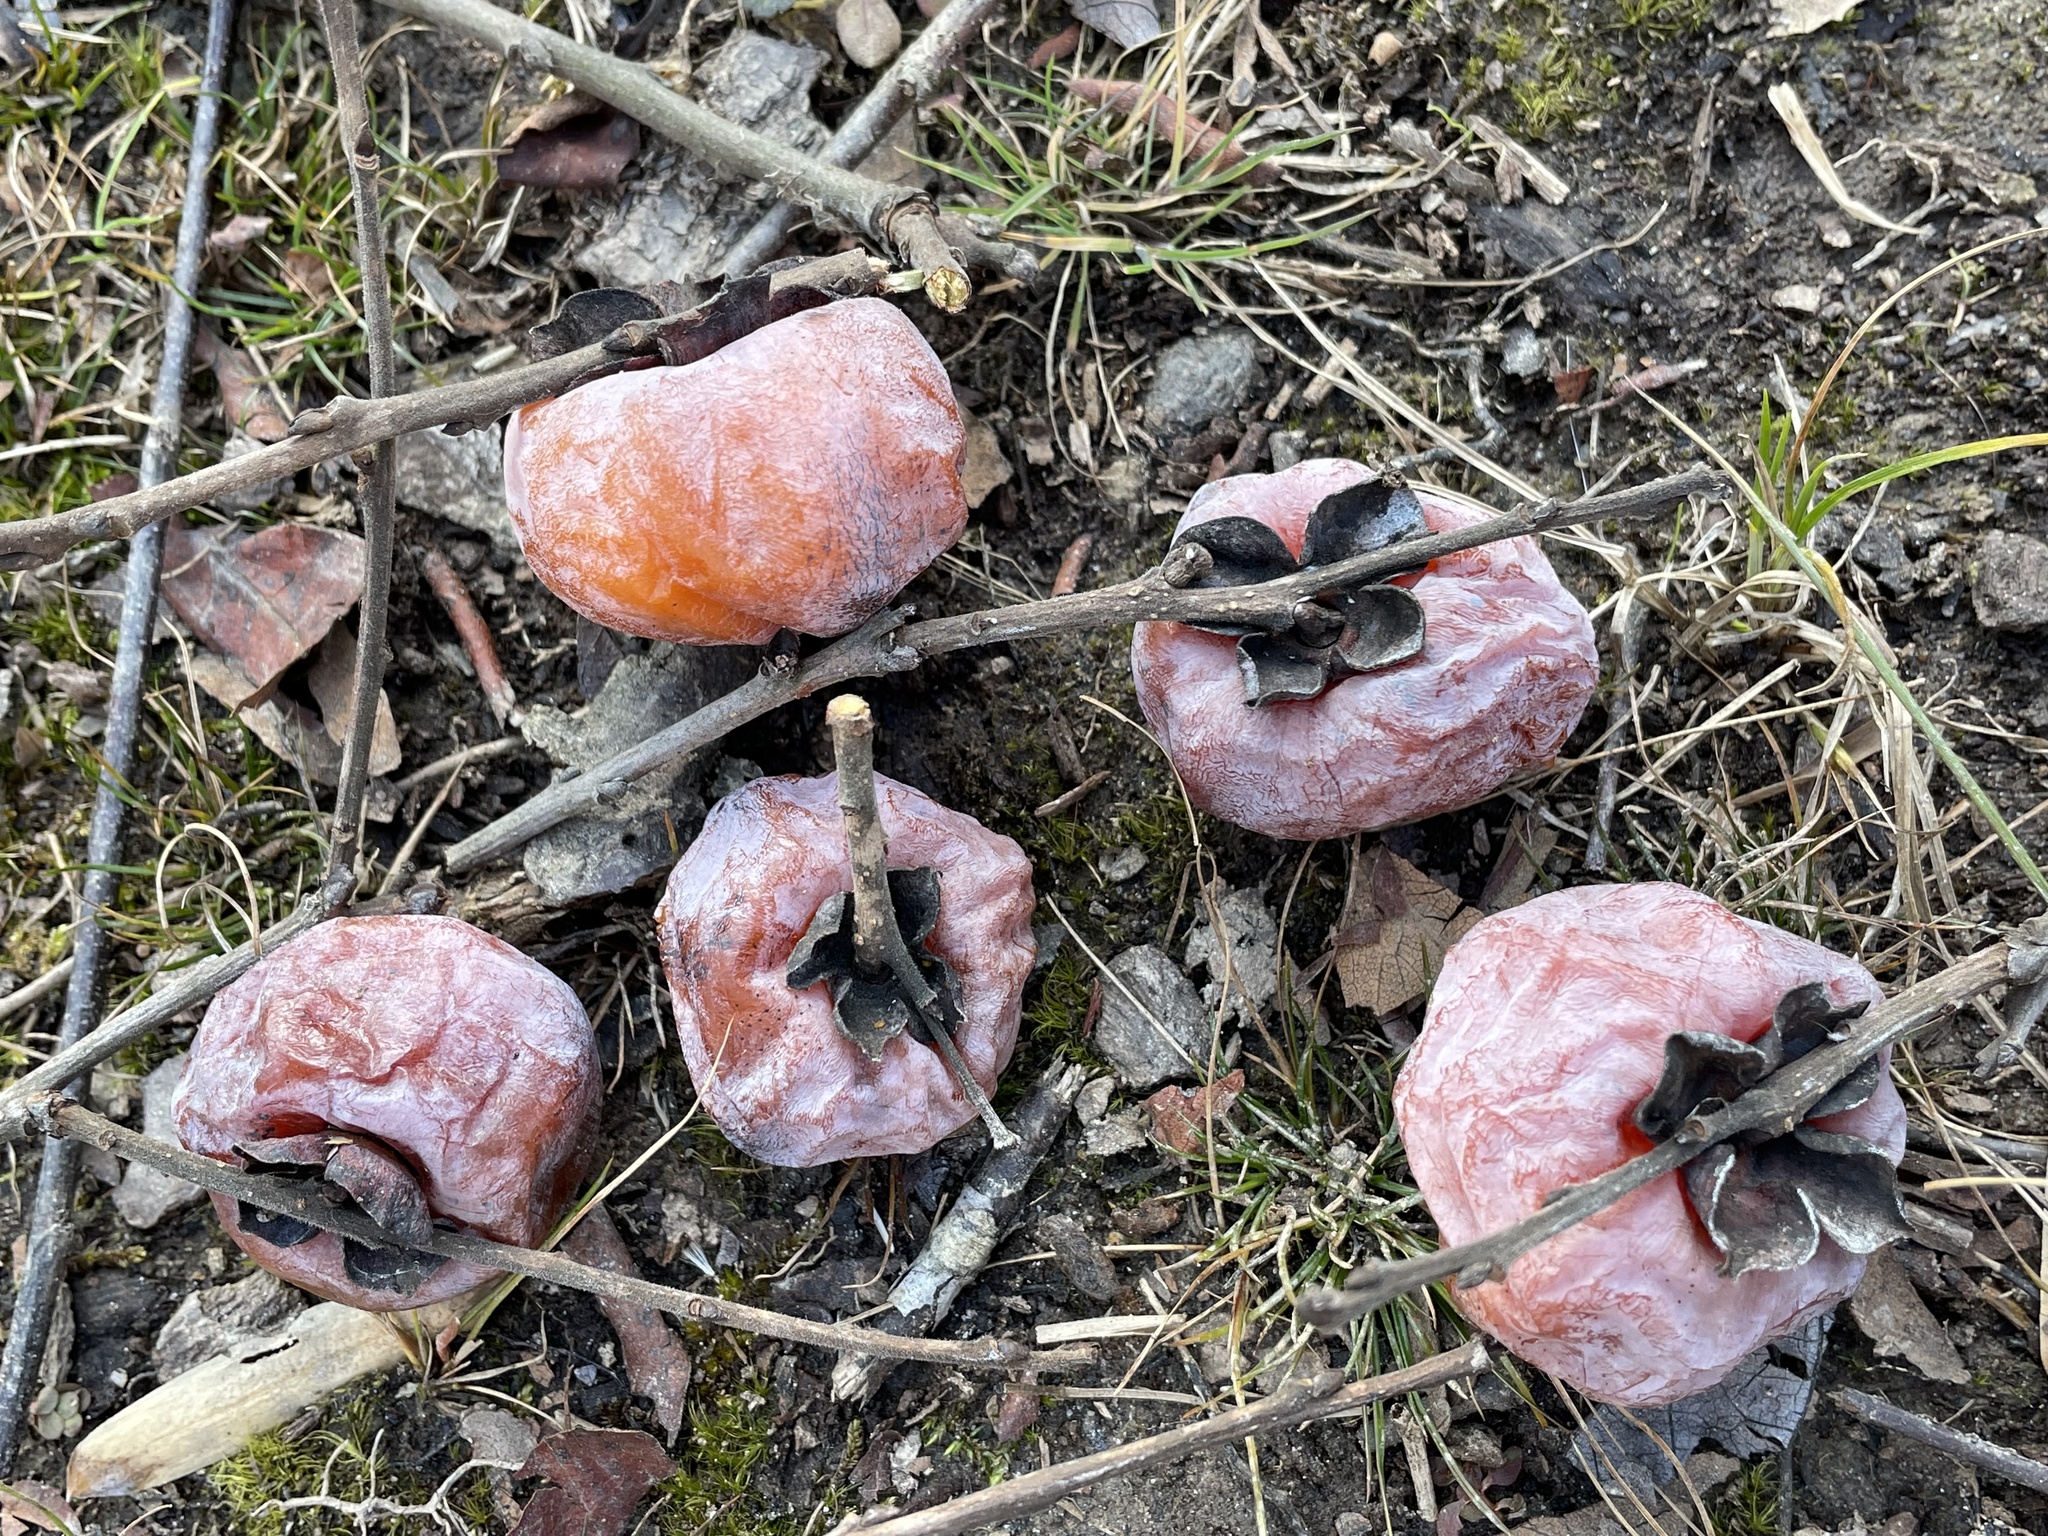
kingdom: Plantae
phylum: Tracheophyta
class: Magnoliopsida
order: Ericales
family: Ebenaceae
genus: Diospyros
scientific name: Diospyros virginiana
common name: Persimmon
